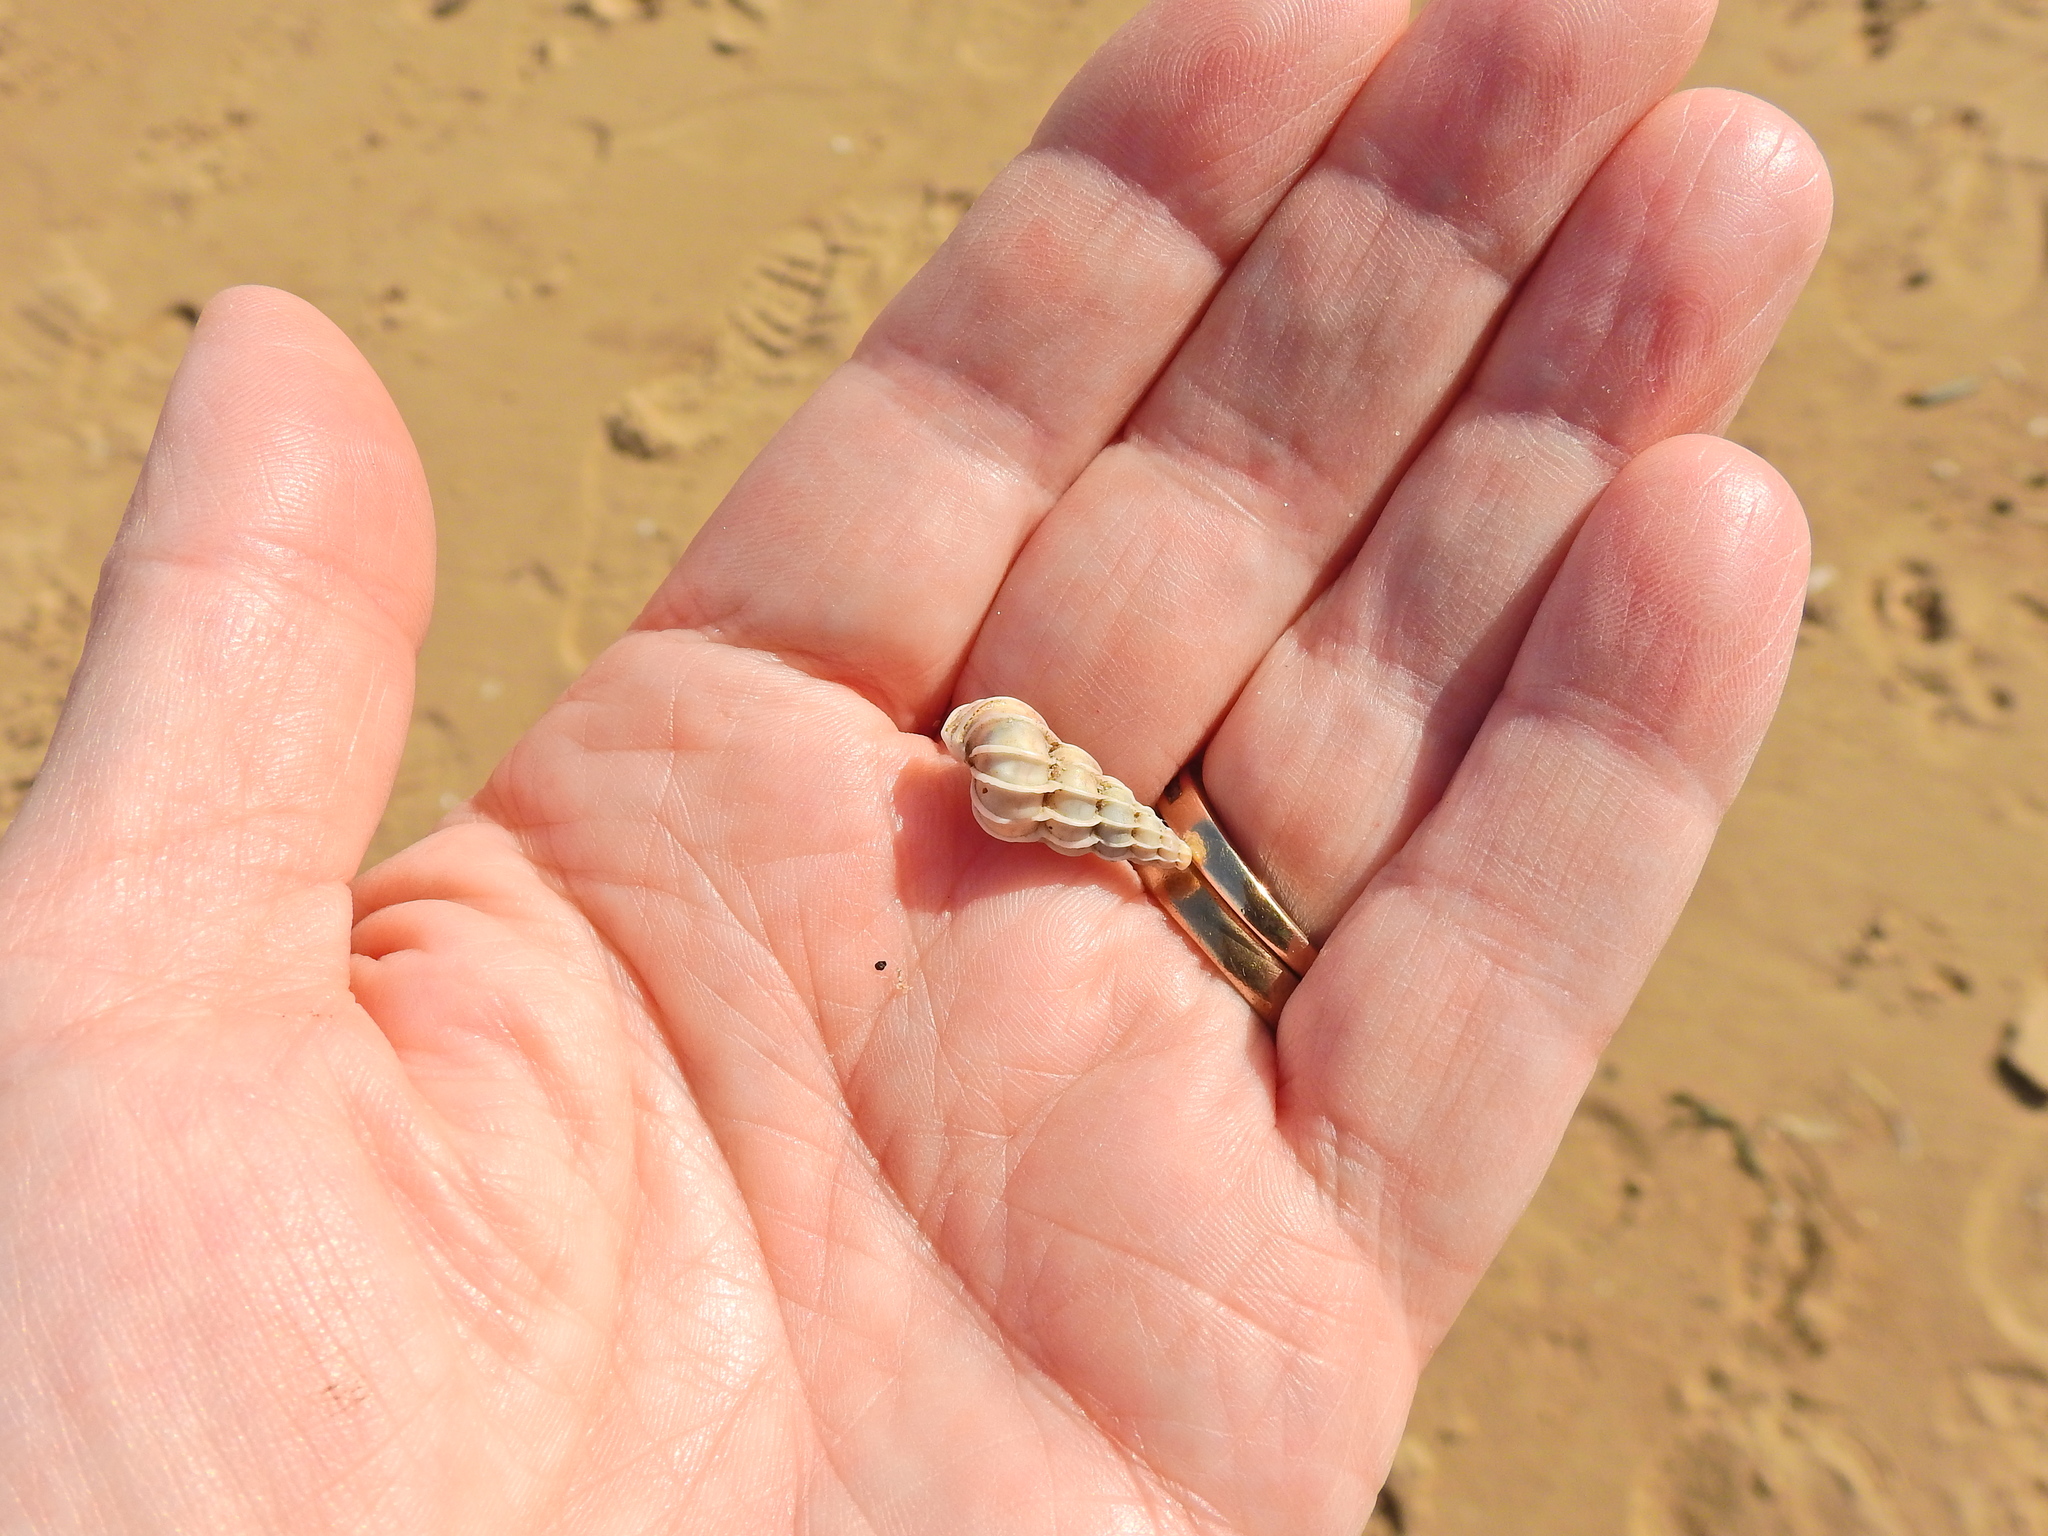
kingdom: Animalia
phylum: Mollusca
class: Gastropoda
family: Epitoniidae
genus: Epitonium
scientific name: Epitonium clathrus
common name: Common wentletrap
